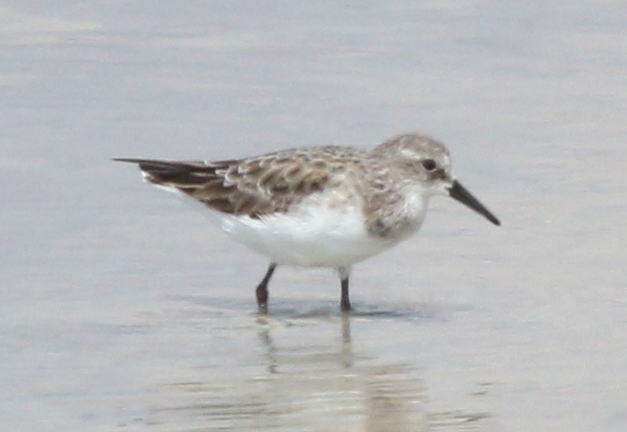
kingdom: Animalia
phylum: Chordata
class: Aves
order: Charadriiformes
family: Scolopacidae
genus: Calidris
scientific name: Calidris minuta
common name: Little stint
